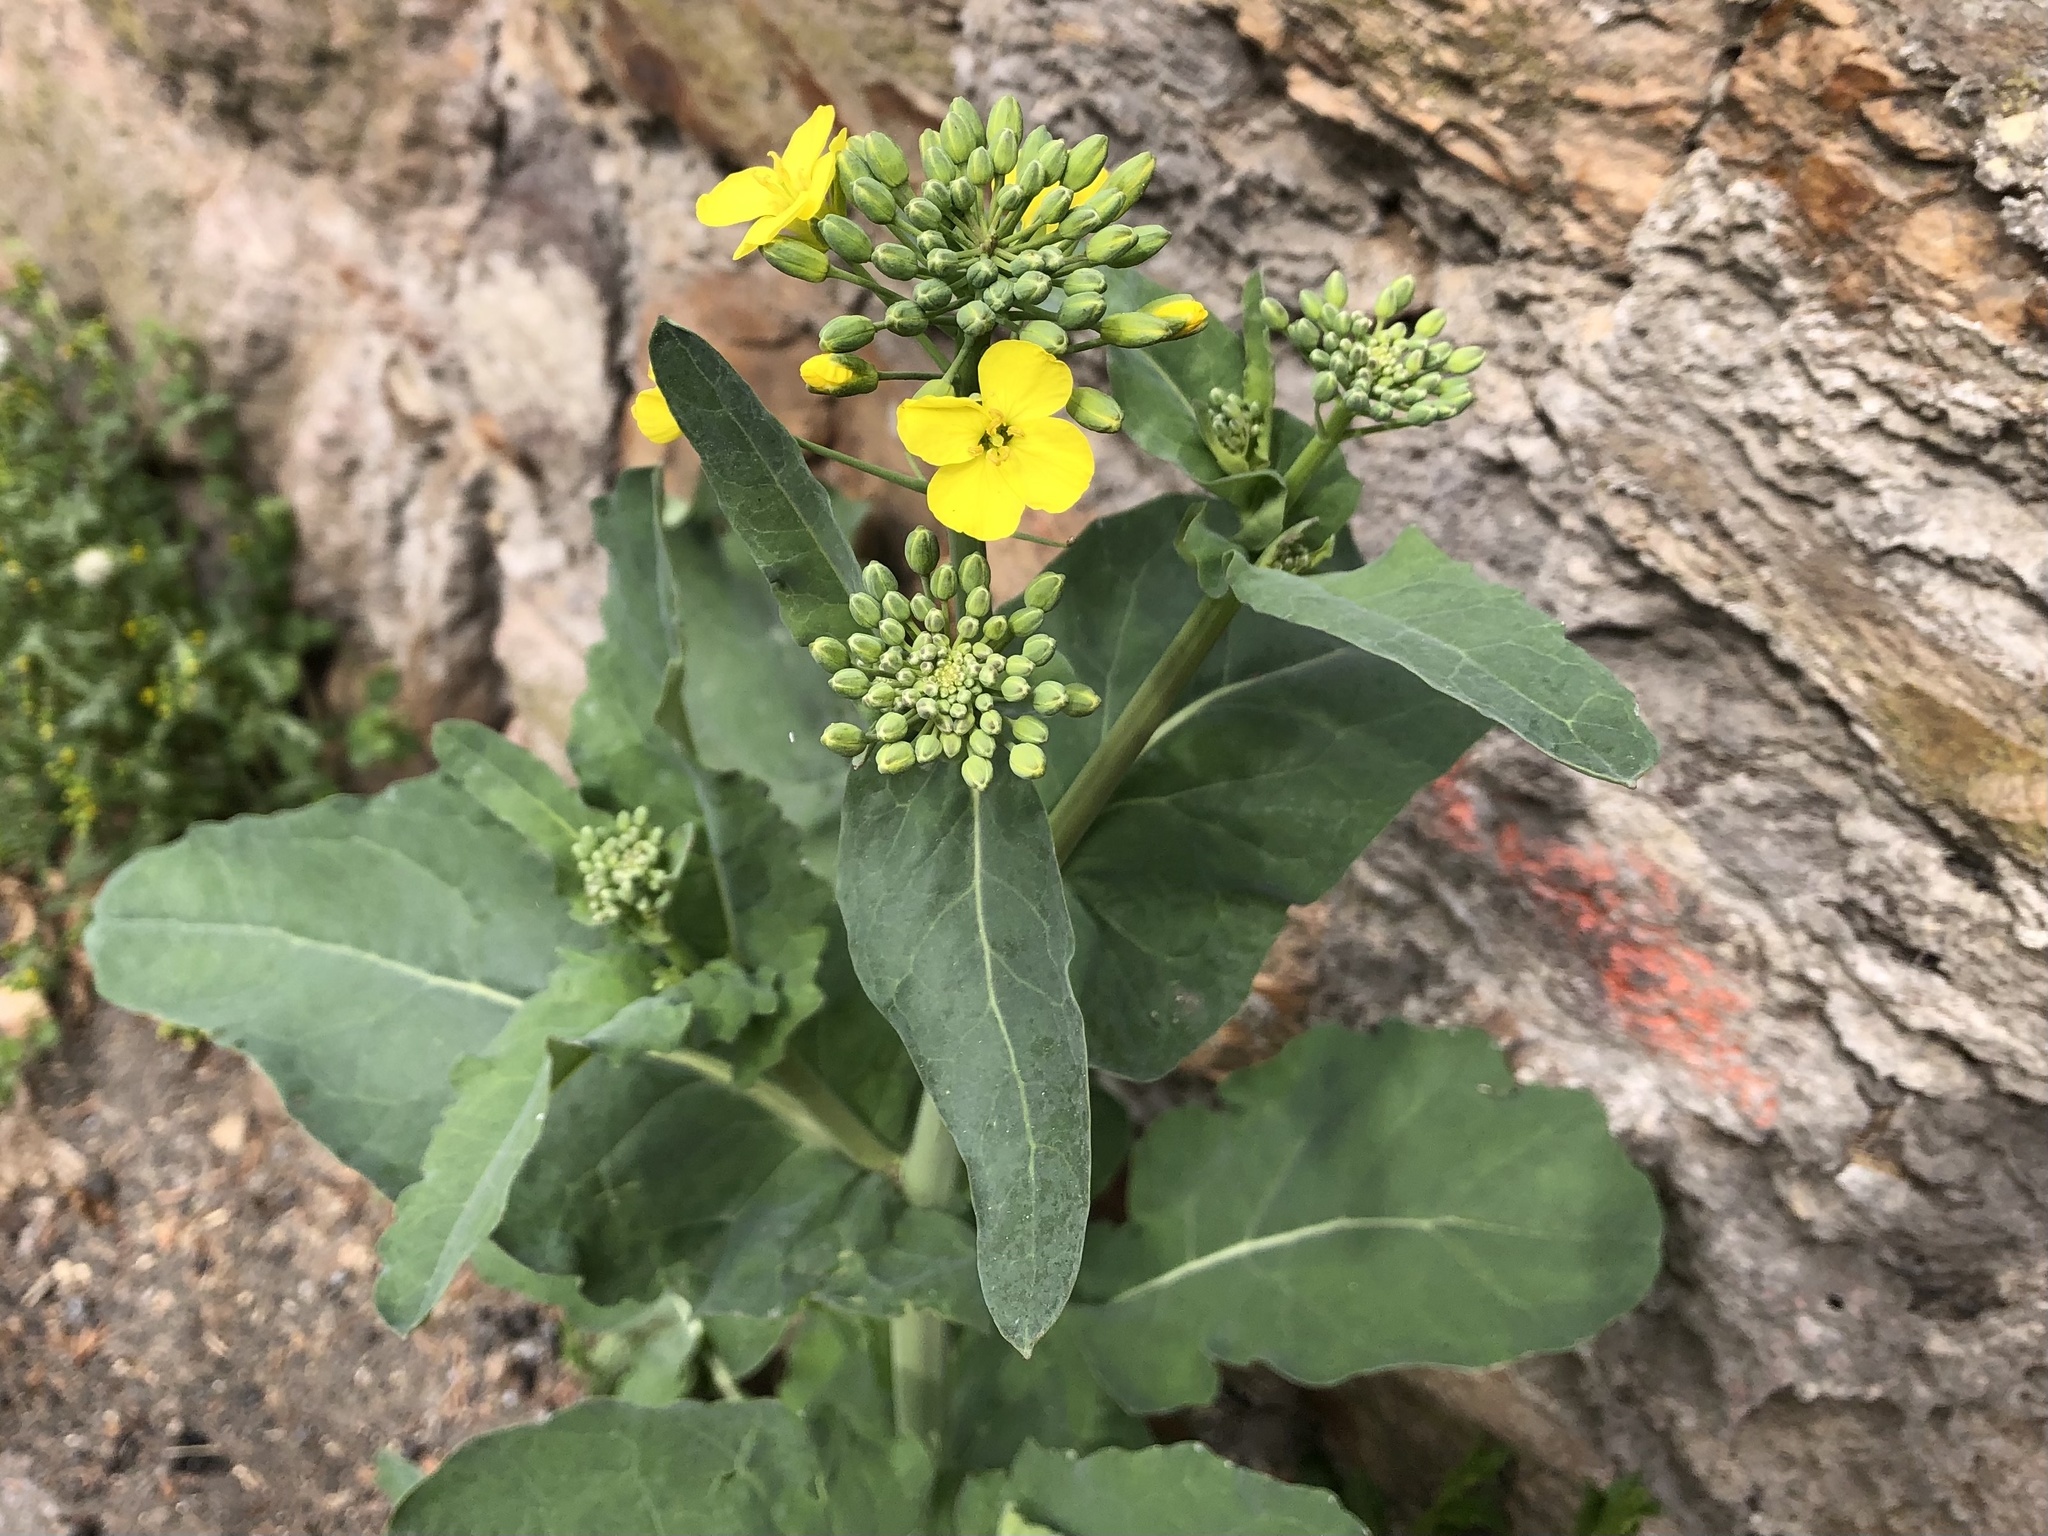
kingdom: Plantae
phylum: Tracheophyta
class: Magnoliopsida
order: Brassicales
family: Brassicaceae
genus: Brassica
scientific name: Brassica napus
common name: Rape
